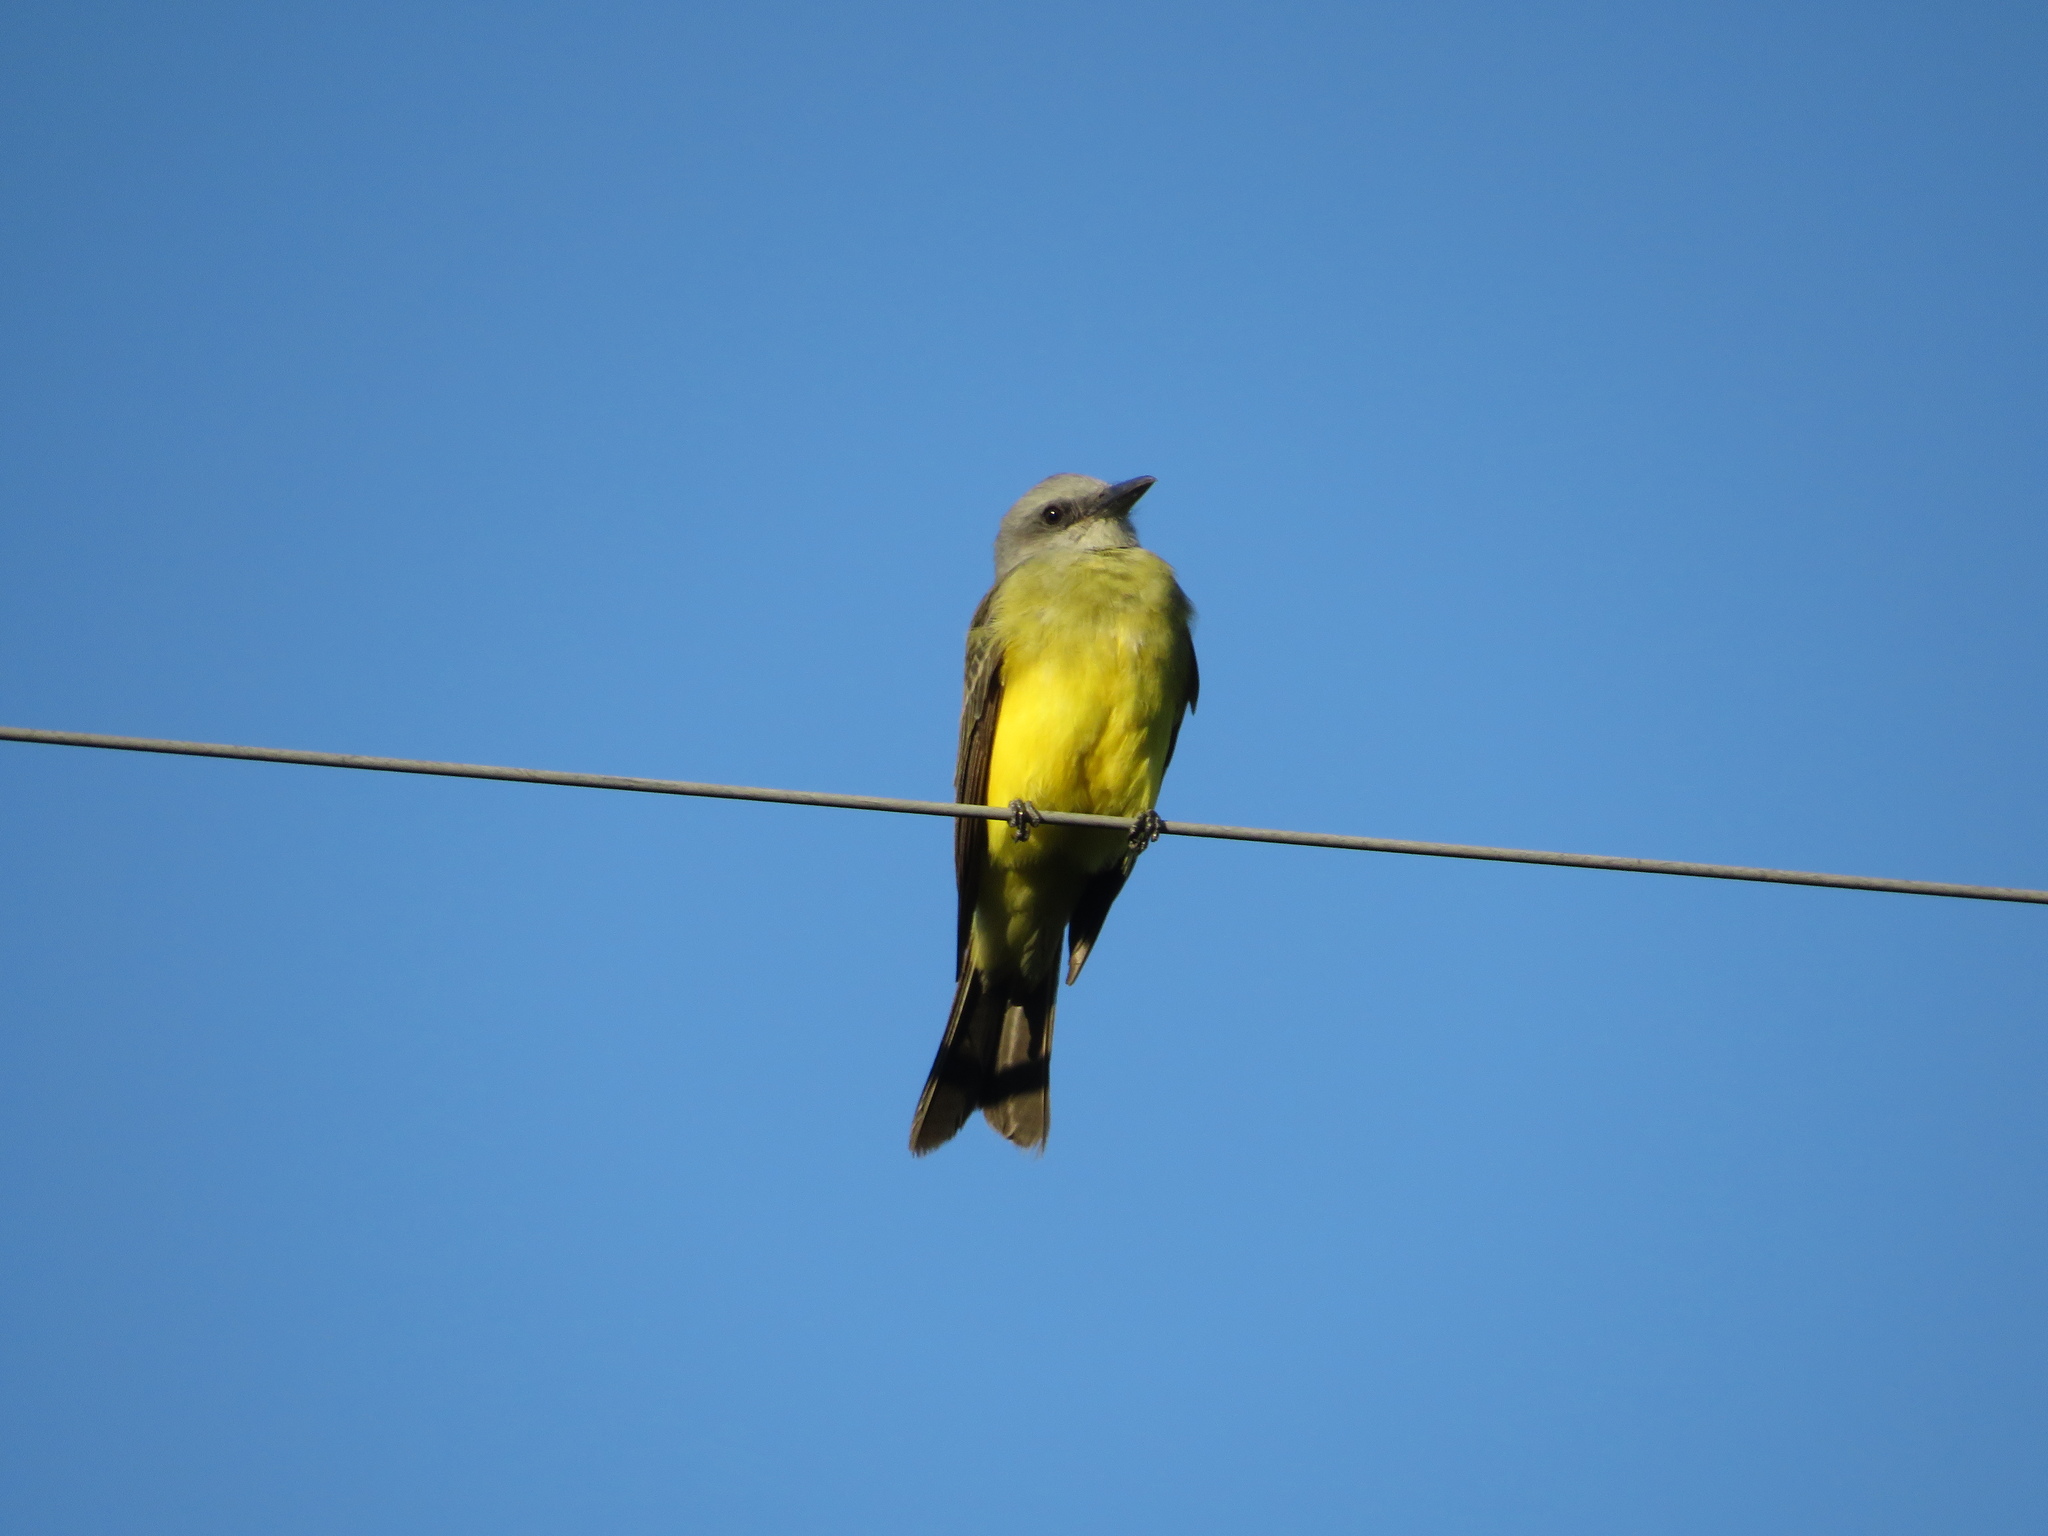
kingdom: Animalia
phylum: Chordata
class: Aves
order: Passeriformes
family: Tyrannidae
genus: Tyrannus
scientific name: Tyrannus melancholicus
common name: Tropical kingbird
